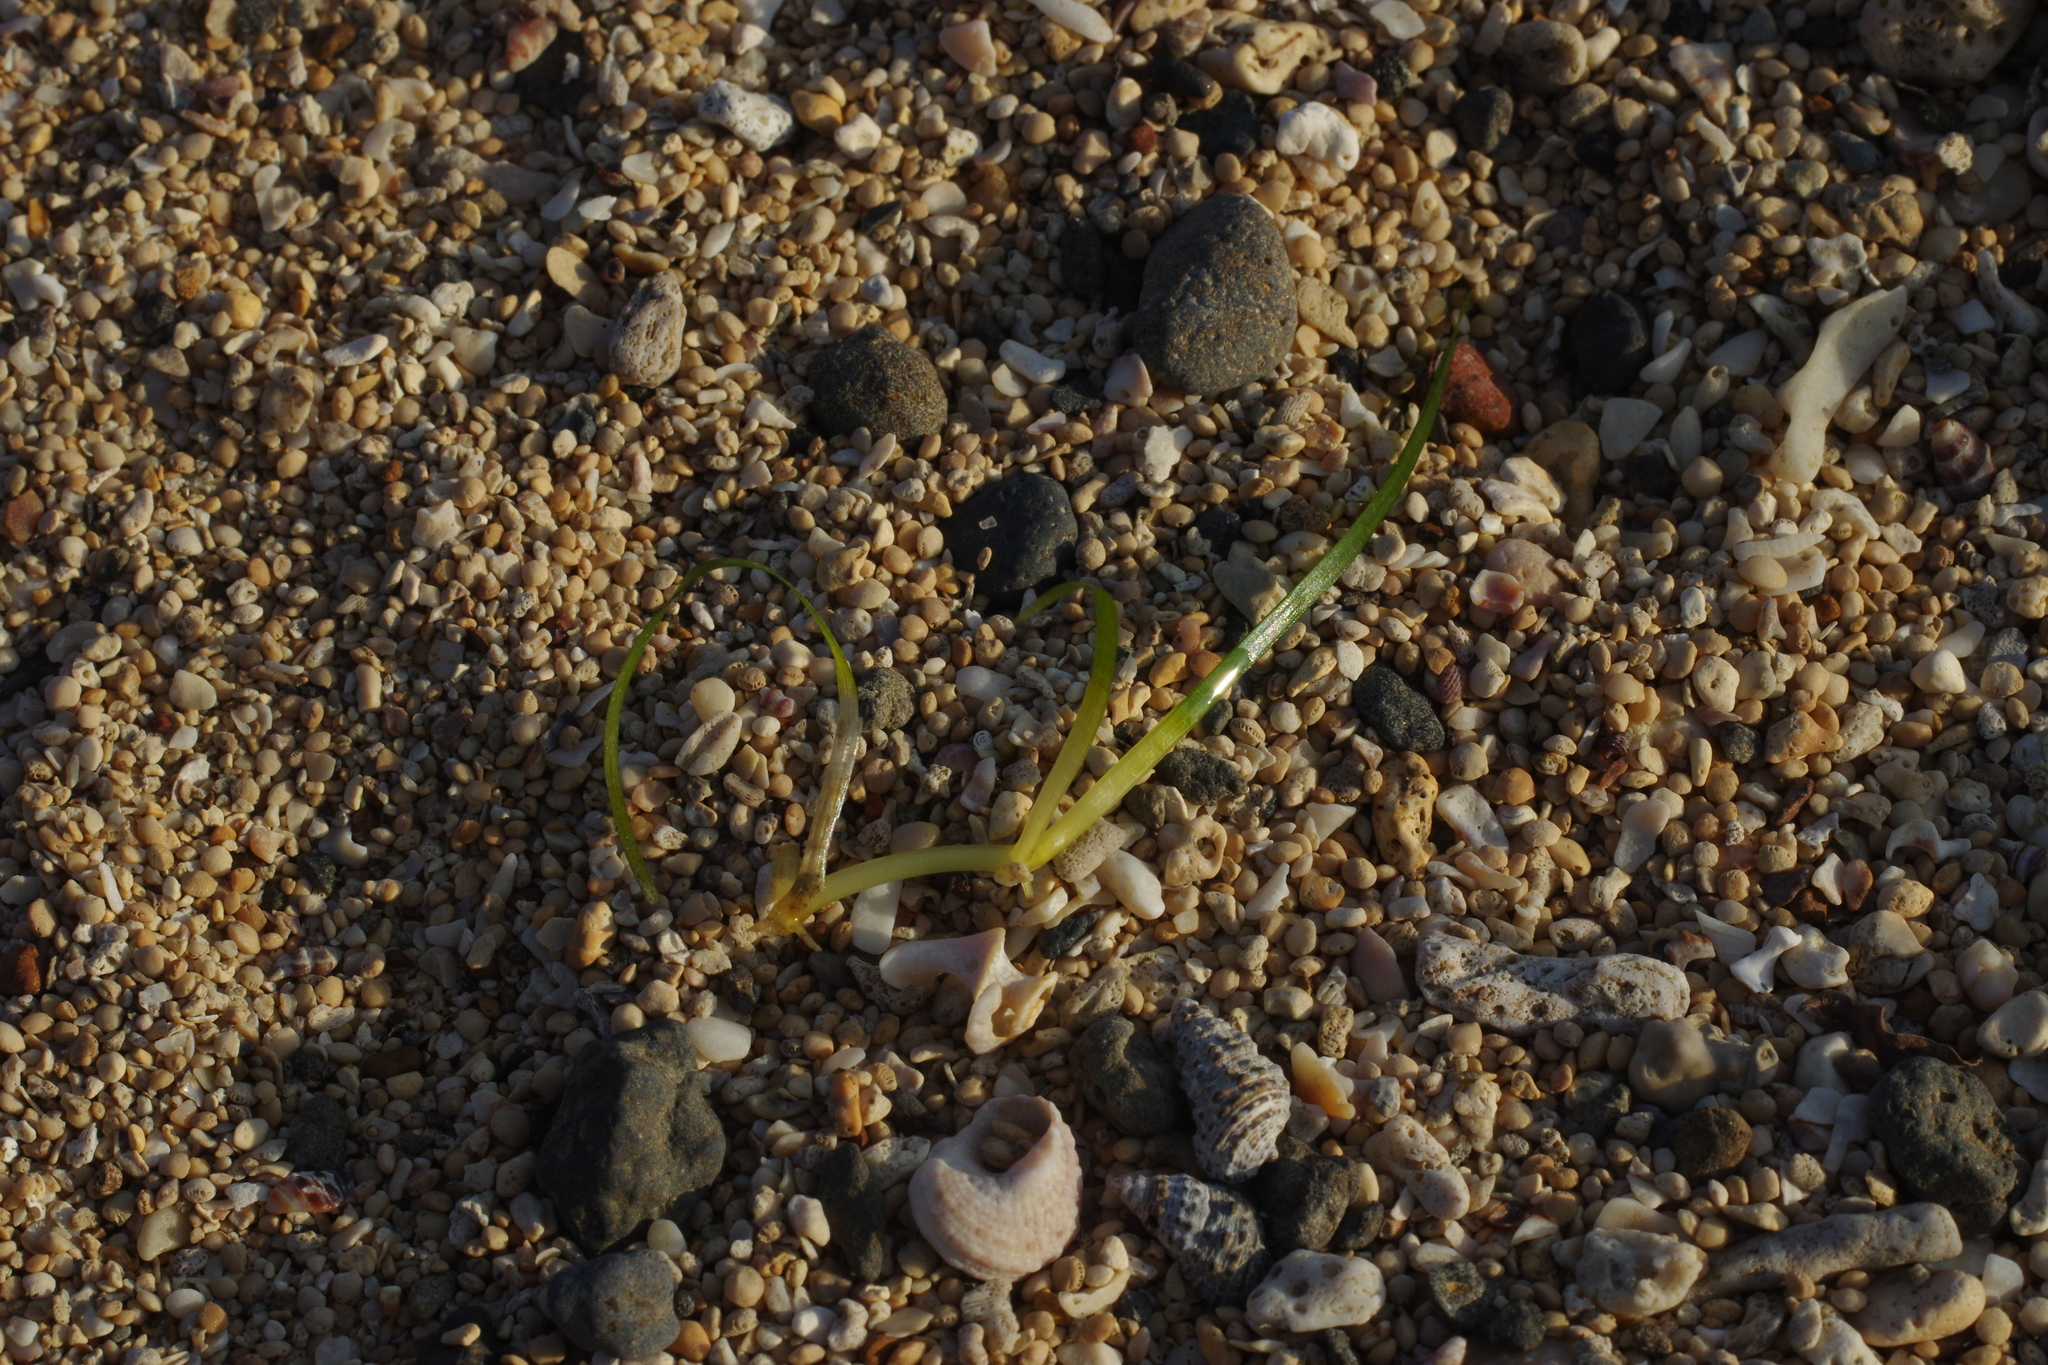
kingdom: Plantae
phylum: Tracheophyta
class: Liliopsida
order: Alismatales
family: Zosteraceae
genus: Zostera
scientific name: Zostera japonica
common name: Dwarf eelgrass
